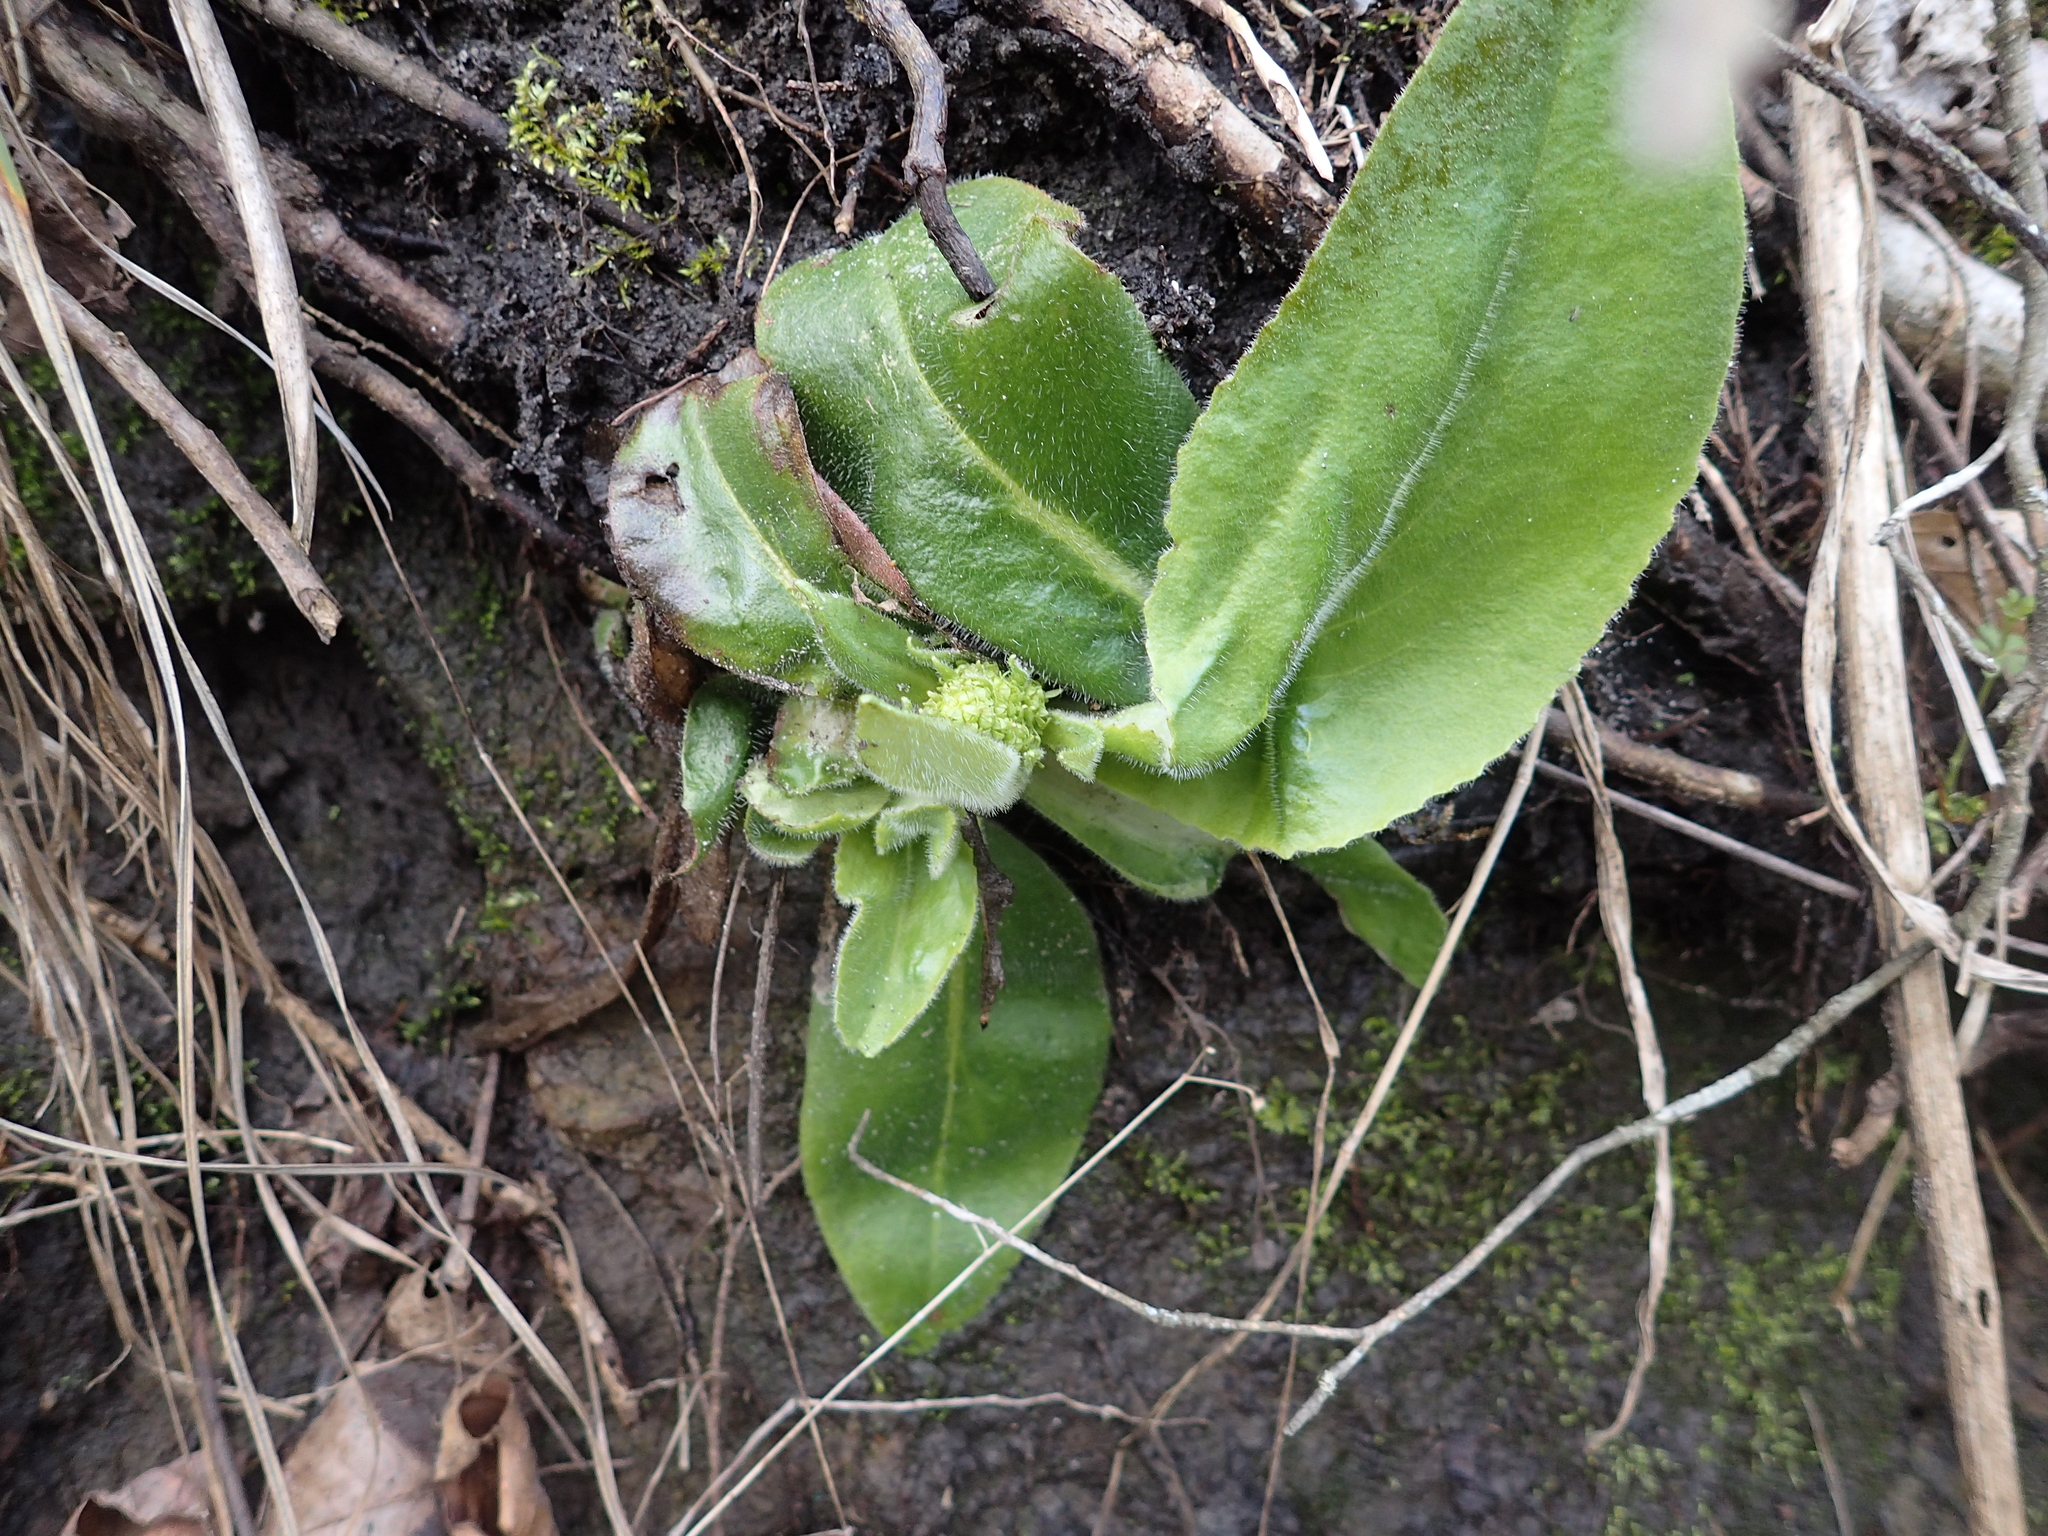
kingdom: Plantae
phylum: Tracheophyta
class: Magnoliopsida
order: Saxifragales
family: Saxifragaceae
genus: Micranthes
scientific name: Micranthes pensylvanica
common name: Marsh saxifrage
